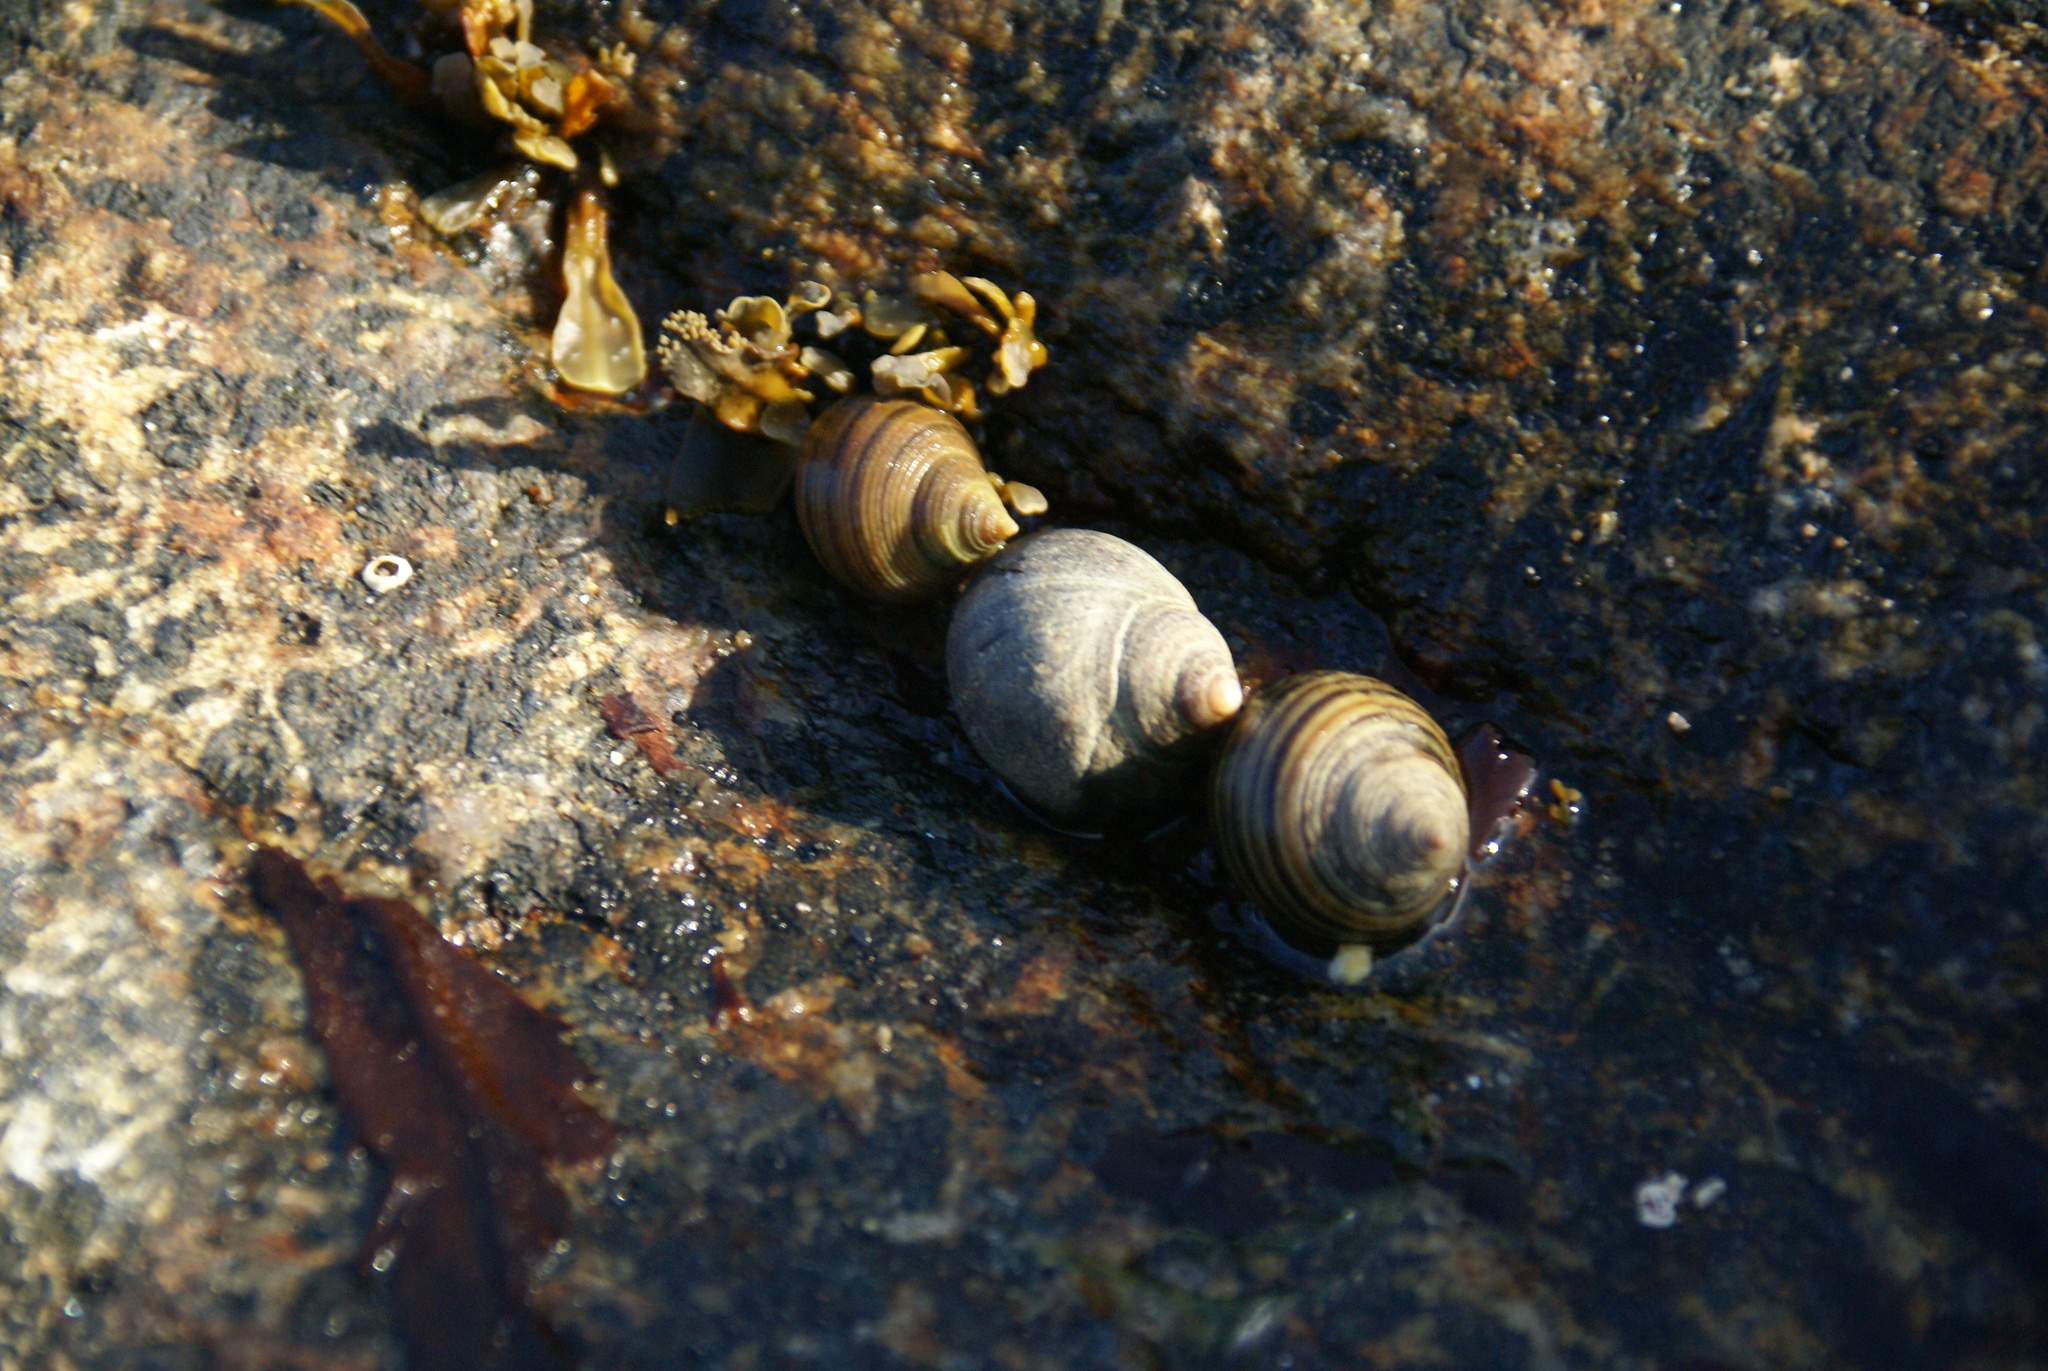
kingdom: Animalia
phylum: Mollusca
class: Gastropoda
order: Littorinimorpha
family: Littorinidae
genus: Littorina
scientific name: Littorina littorea
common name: Common periwinkle
